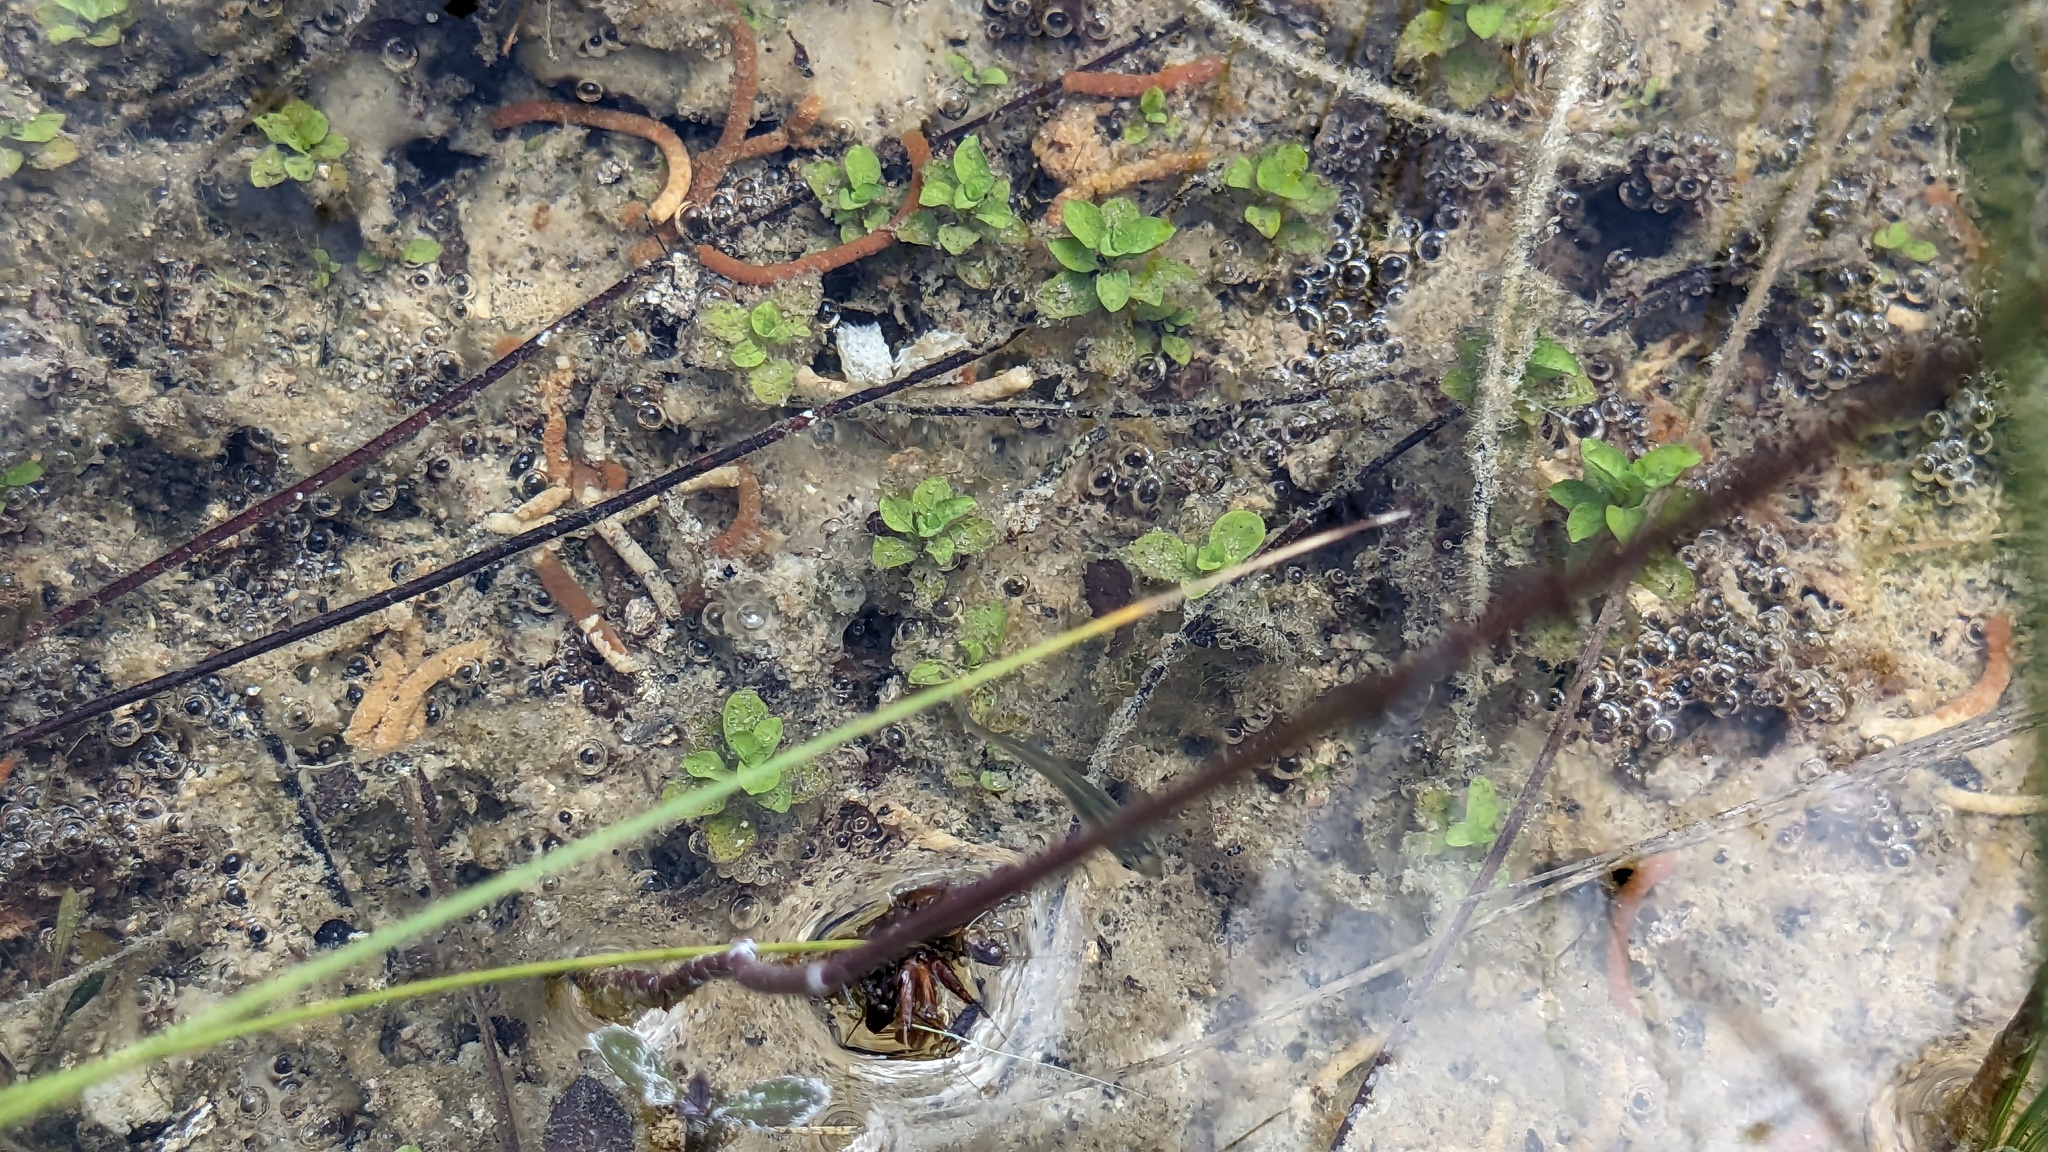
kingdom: Animalia
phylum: Chordata
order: Cyprinodontiformes
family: Poeciliidae
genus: Gambusia
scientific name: Gambusia holbrooki
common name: Eastern mosquitofish
